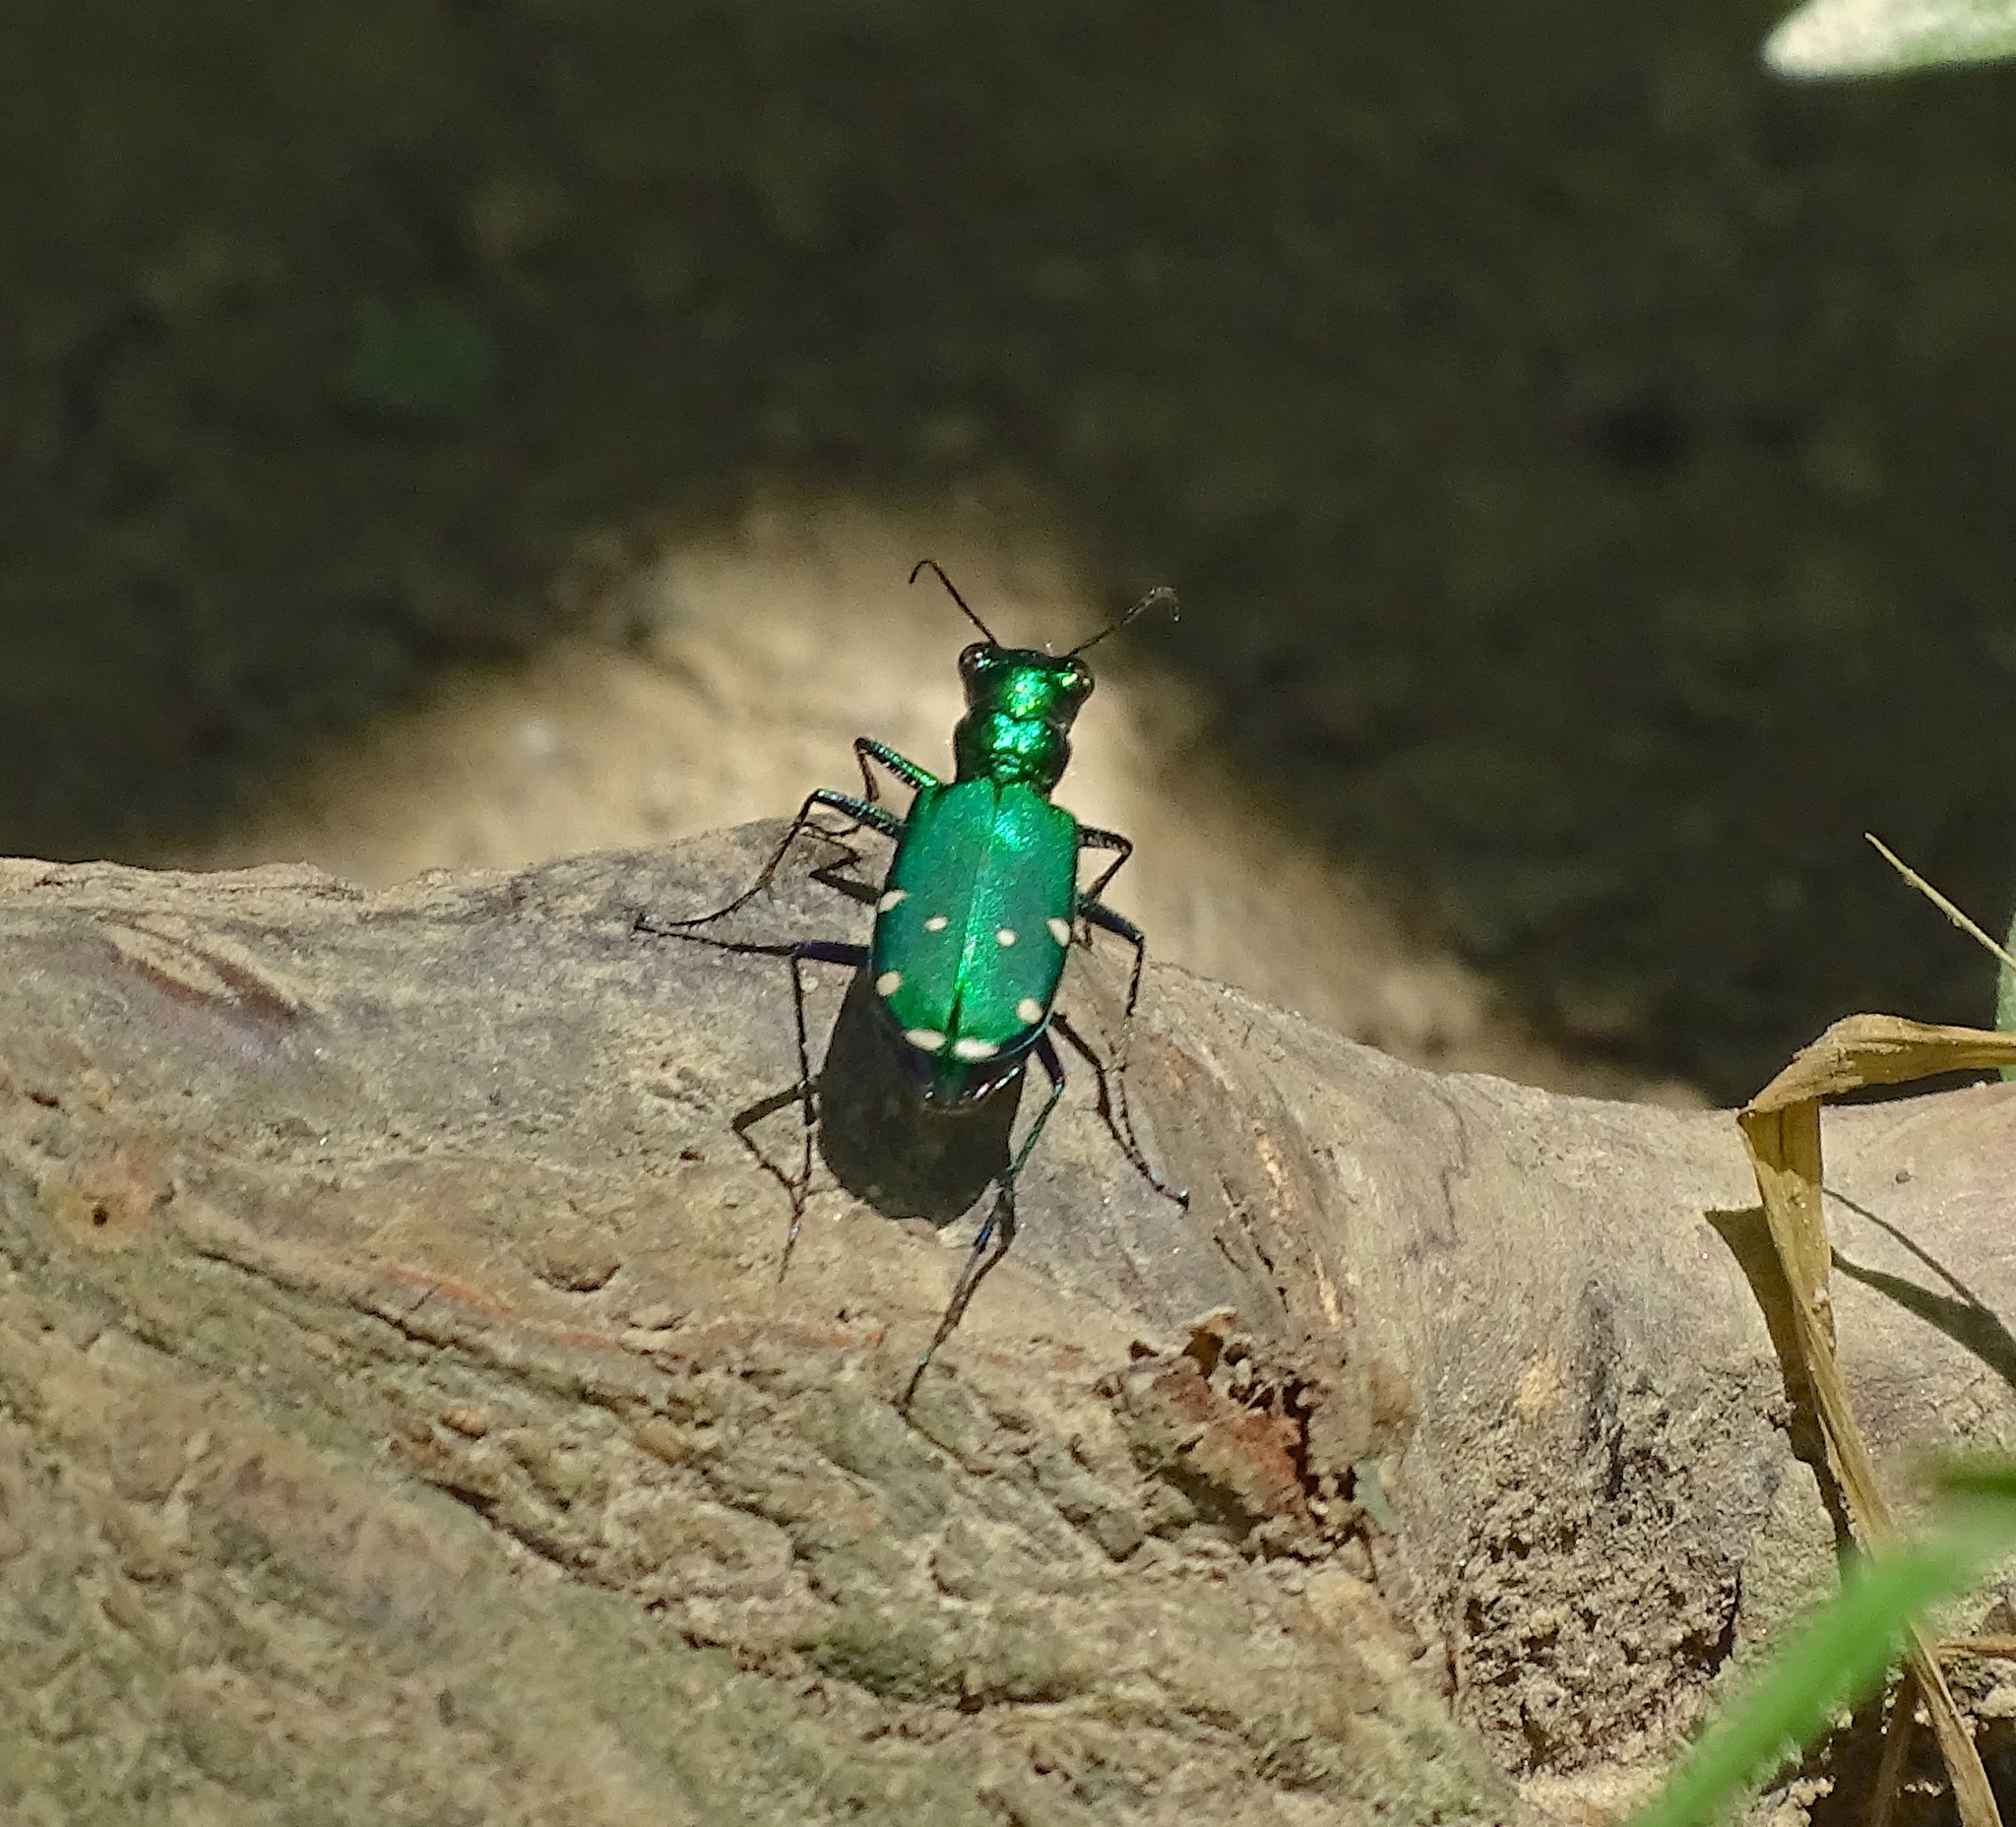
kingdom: Animalia
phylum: Arthropoda
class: Insecta
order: Coleoptera
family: Carabidae
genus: Cicindela
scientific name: Cicindela sexguttata
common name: Six-spotted tiger beetle
